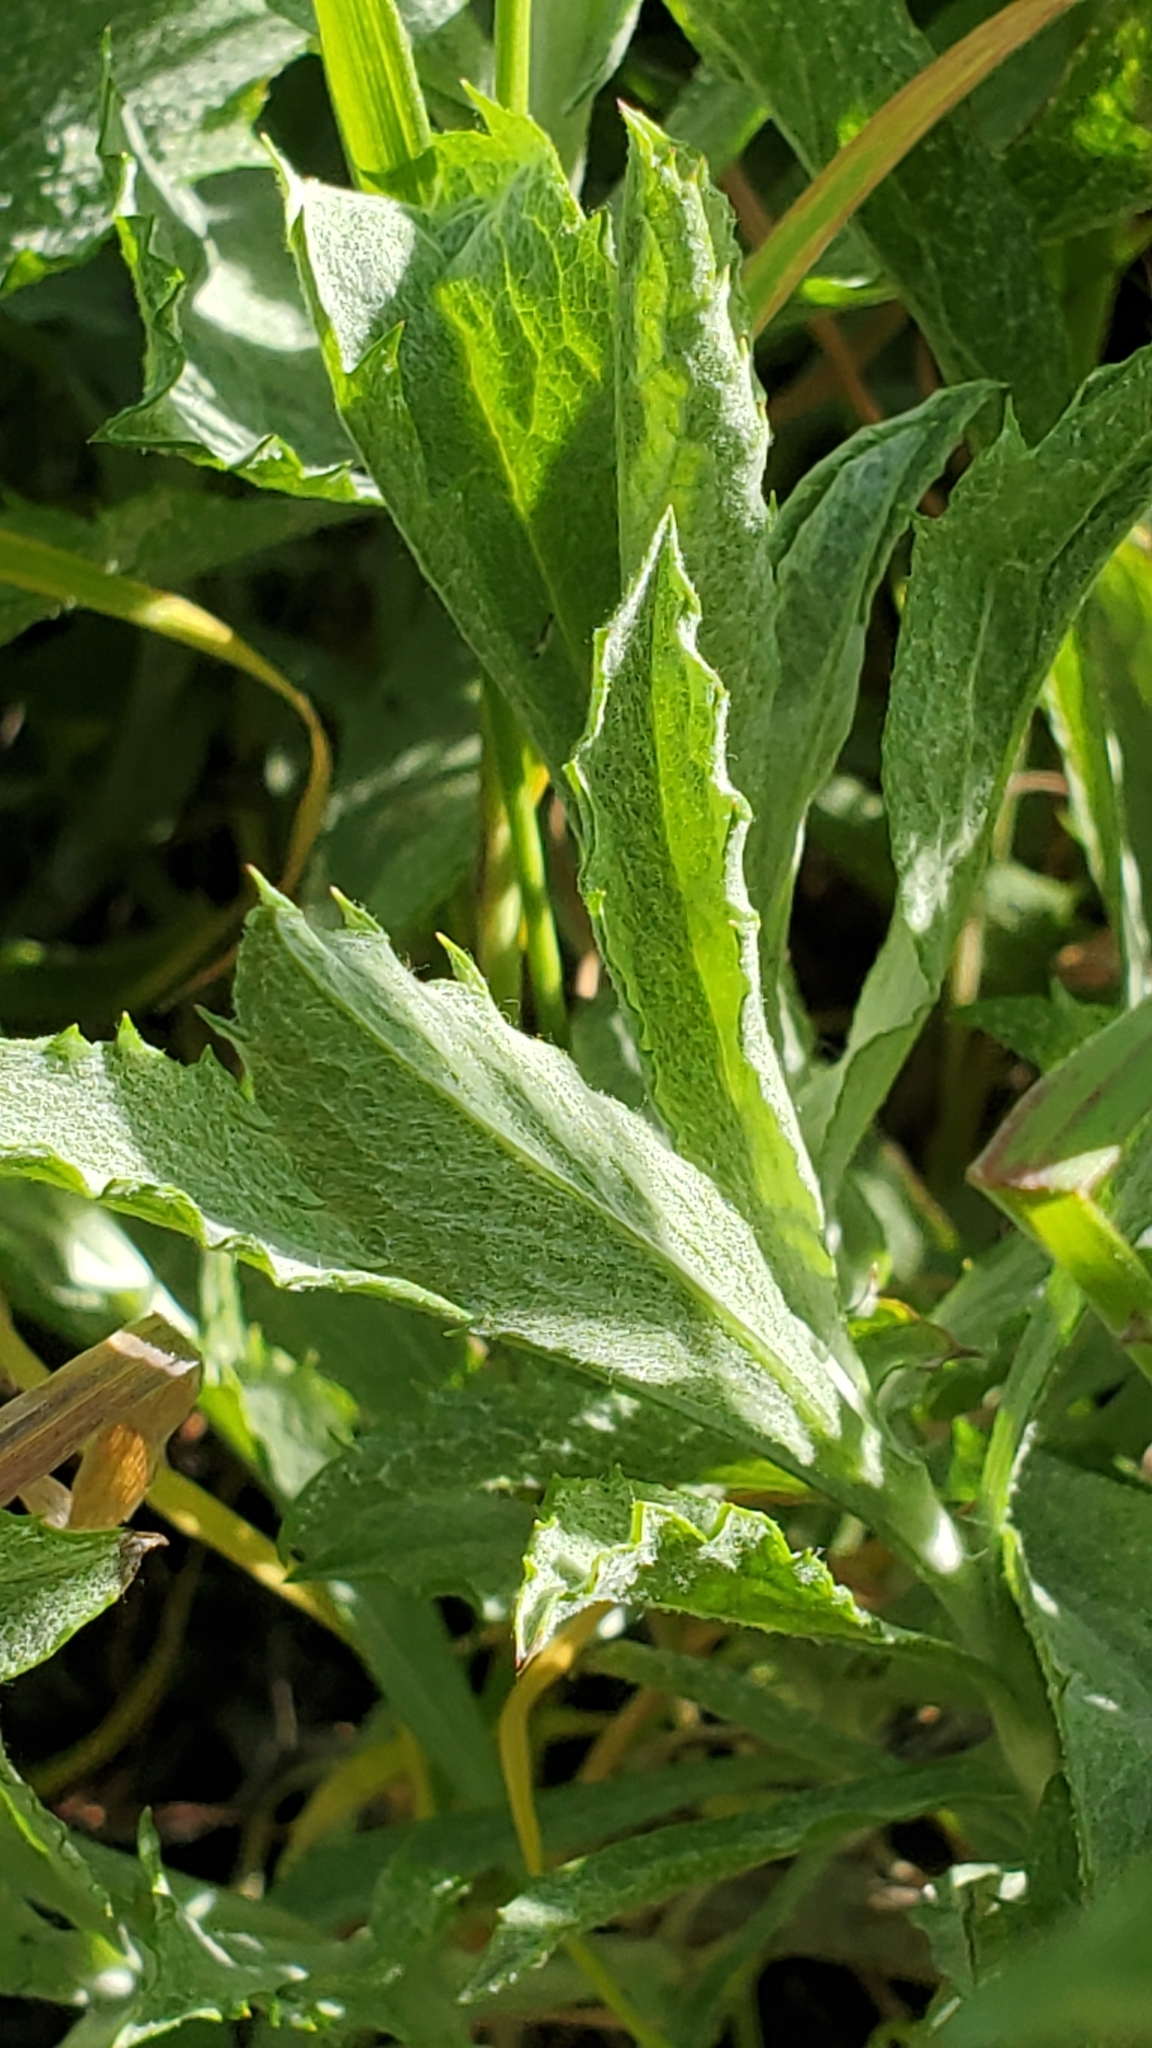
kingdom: Plantae
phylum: Tracheophyta
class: Magnoliopsida
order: Asterales
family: Asteraceae
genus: Corethrogyne
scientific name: Corethrogyne filaginifolia
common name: Sand-aster
